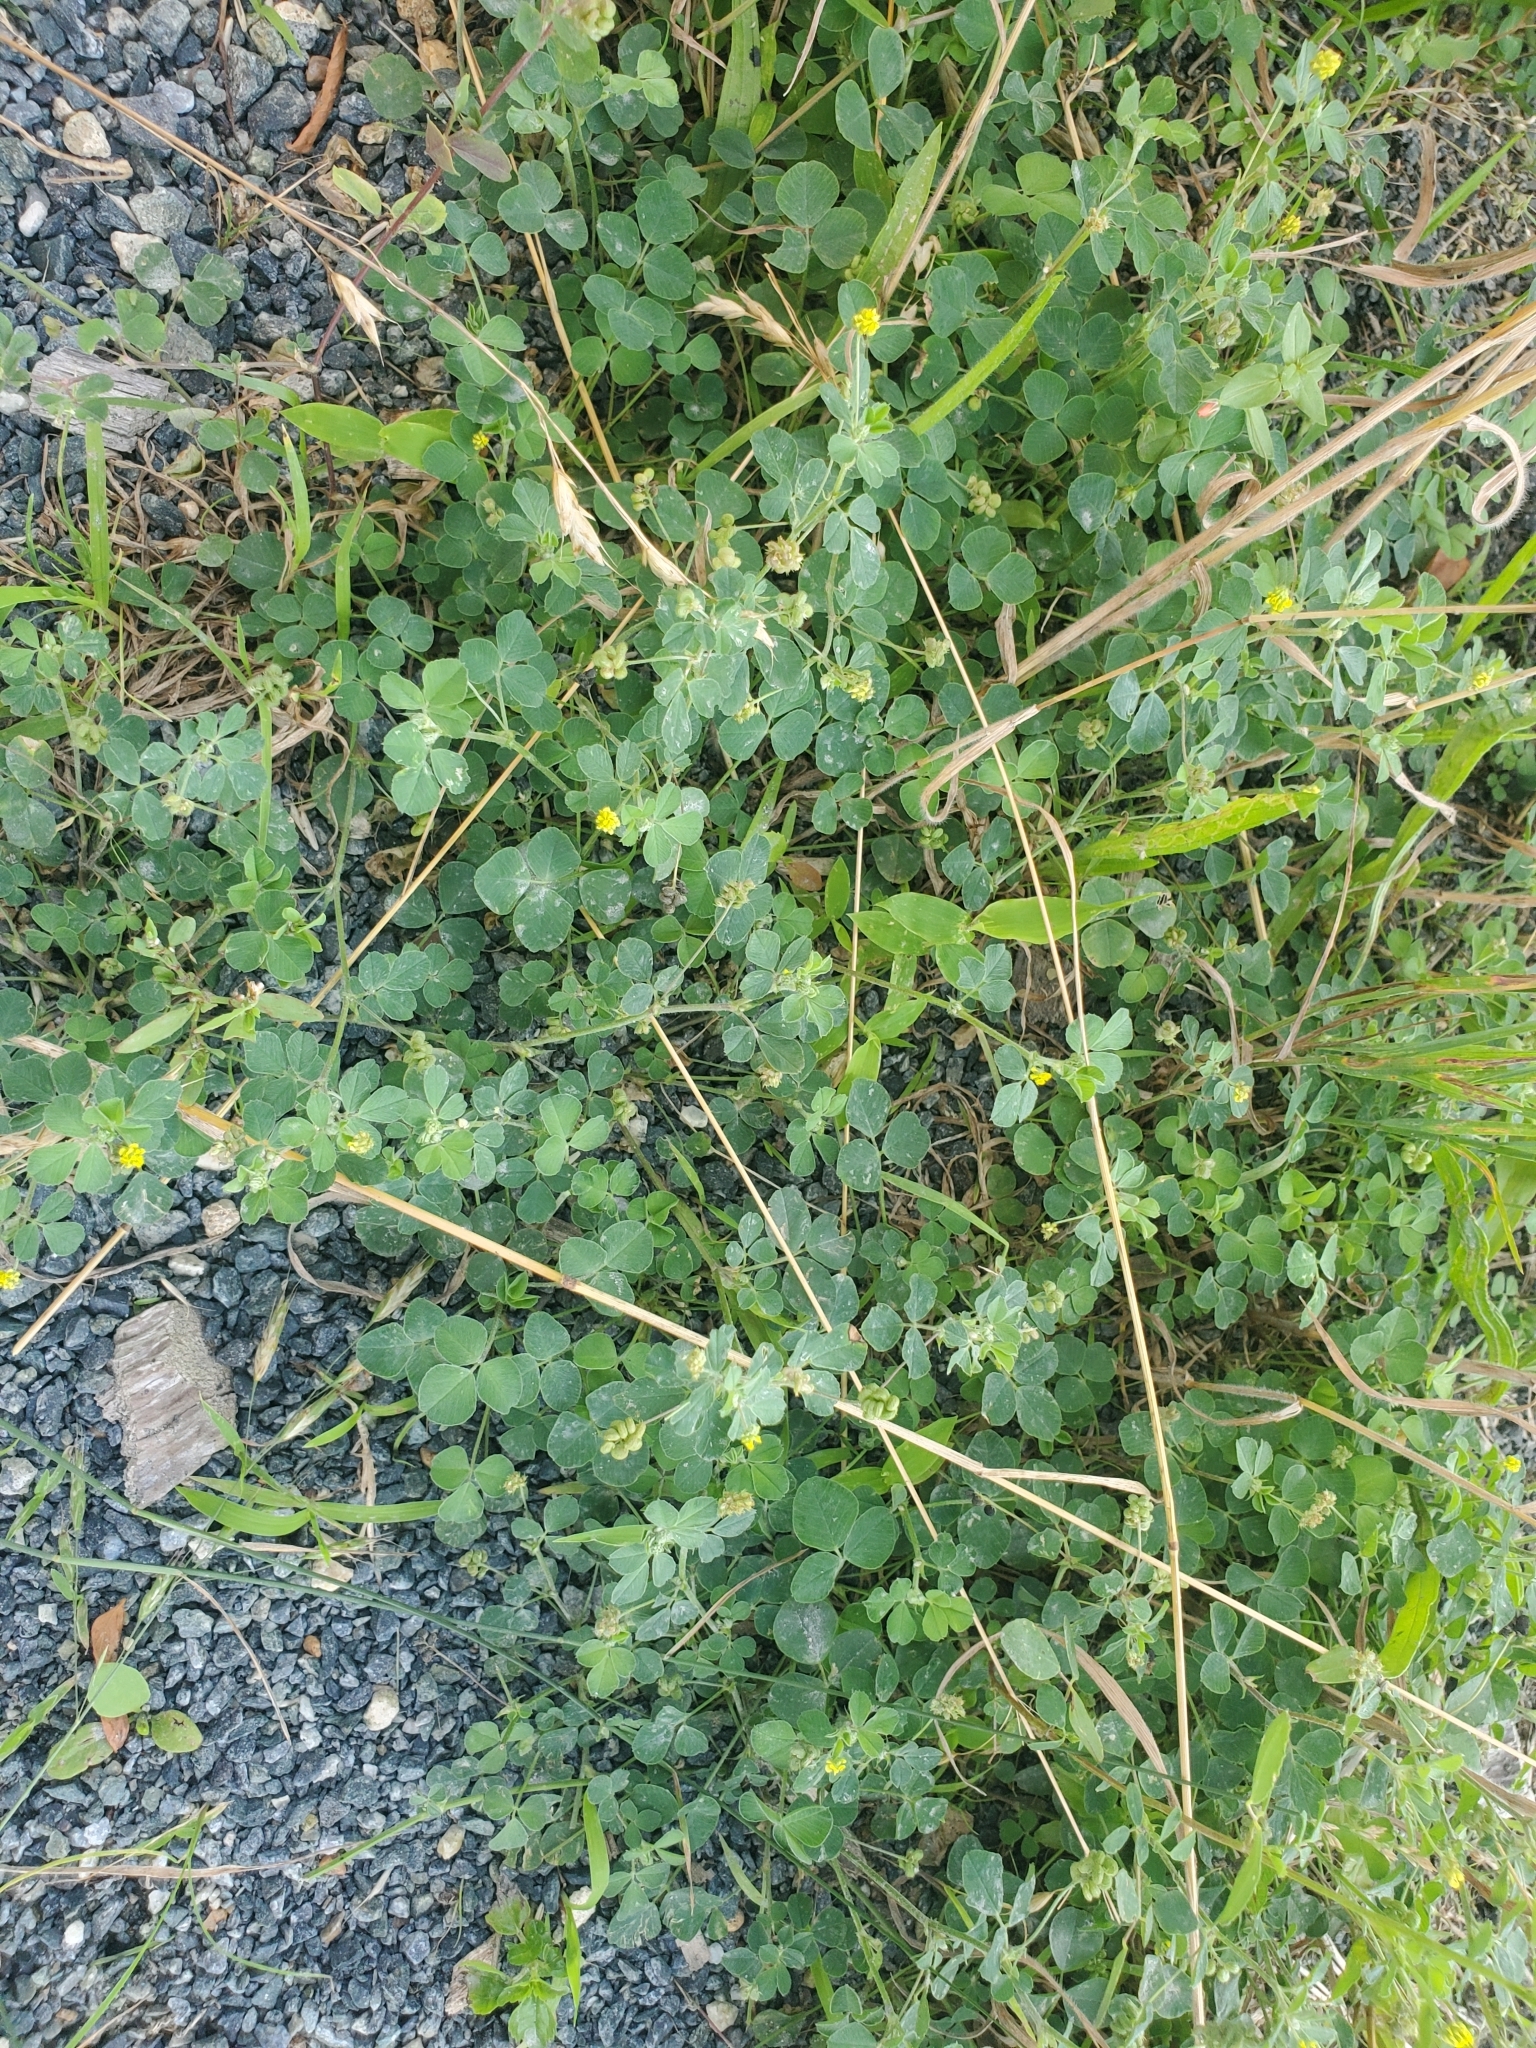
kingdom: Plantae
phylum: Tracheophyta
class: Magnoliopsida
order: Fabales
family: Fabaceae
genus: Medicago
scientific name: Medicago lupulina
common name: Black medick
